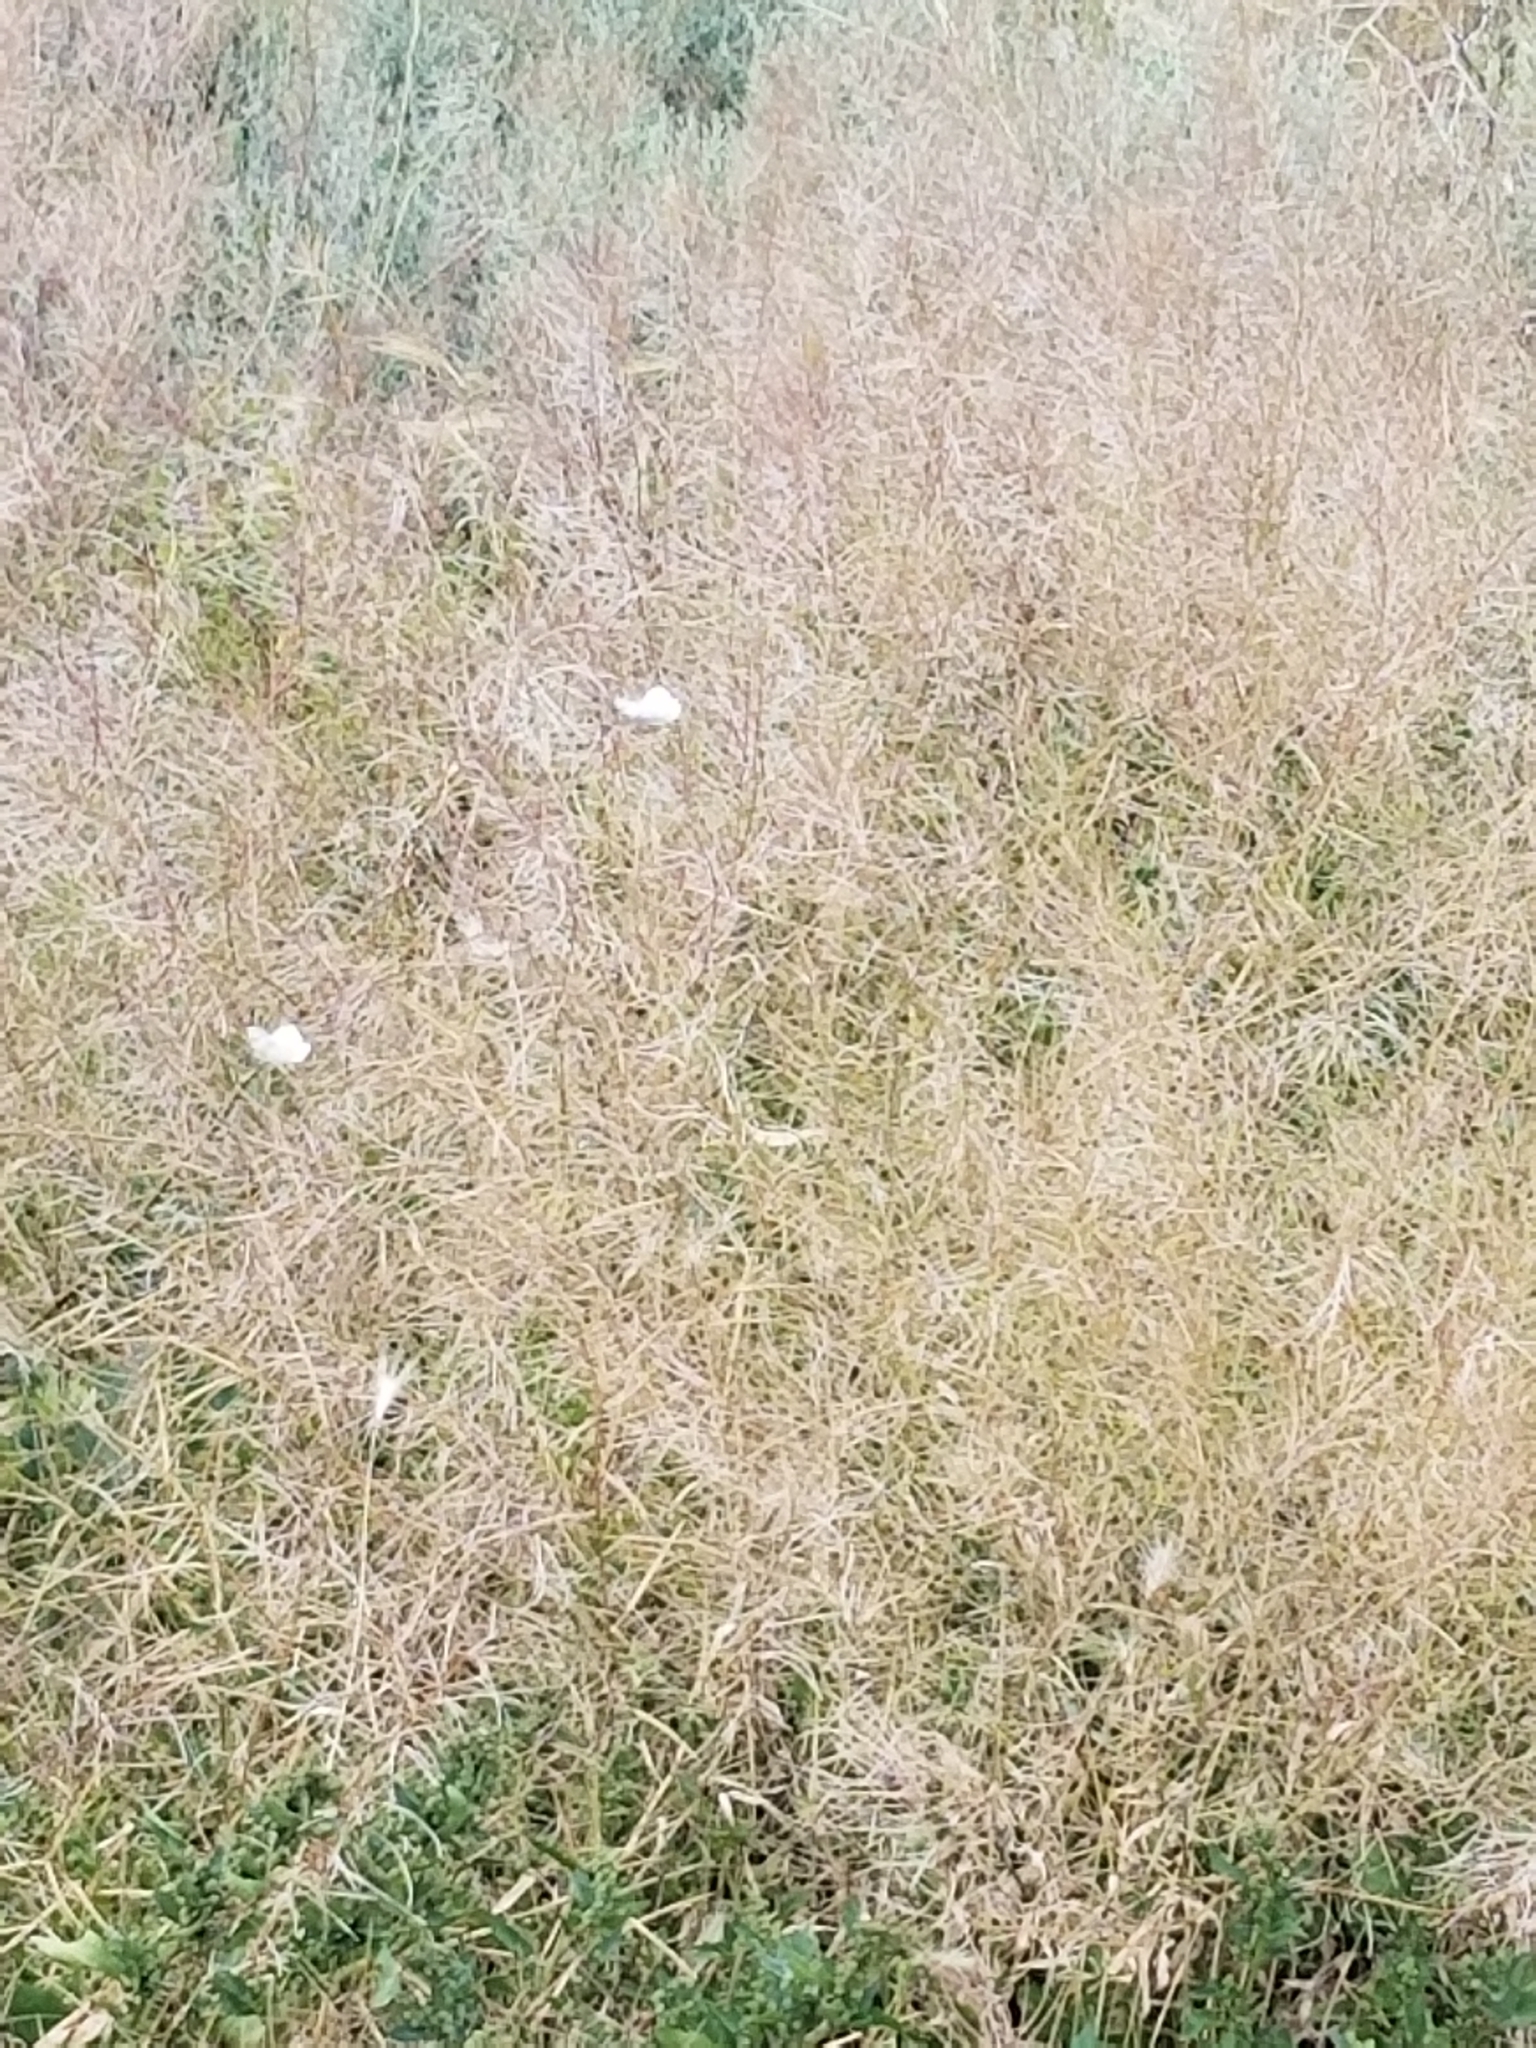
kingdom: Animalia
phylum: Arthropoda
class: Insecta
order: Lepidoptera
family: Pieridae
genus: Pieris
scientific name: Pieris rapae
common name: Small white
